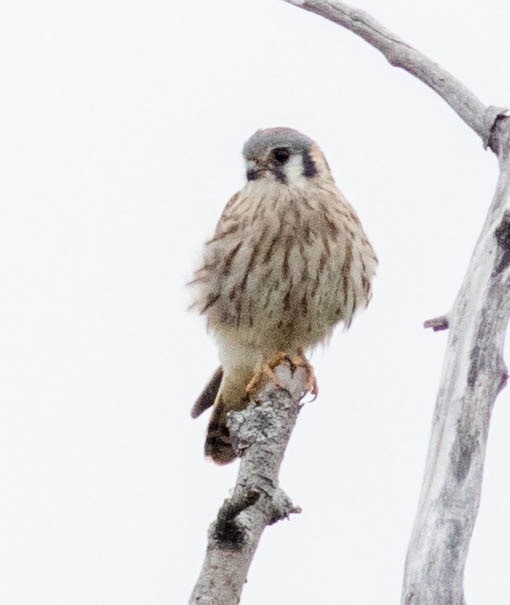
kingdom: Animalia
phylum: Chordata
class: Aves
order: Falconiformes
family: Falconidae
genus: Falco
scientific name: Falco sparverius
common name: American kestrel
